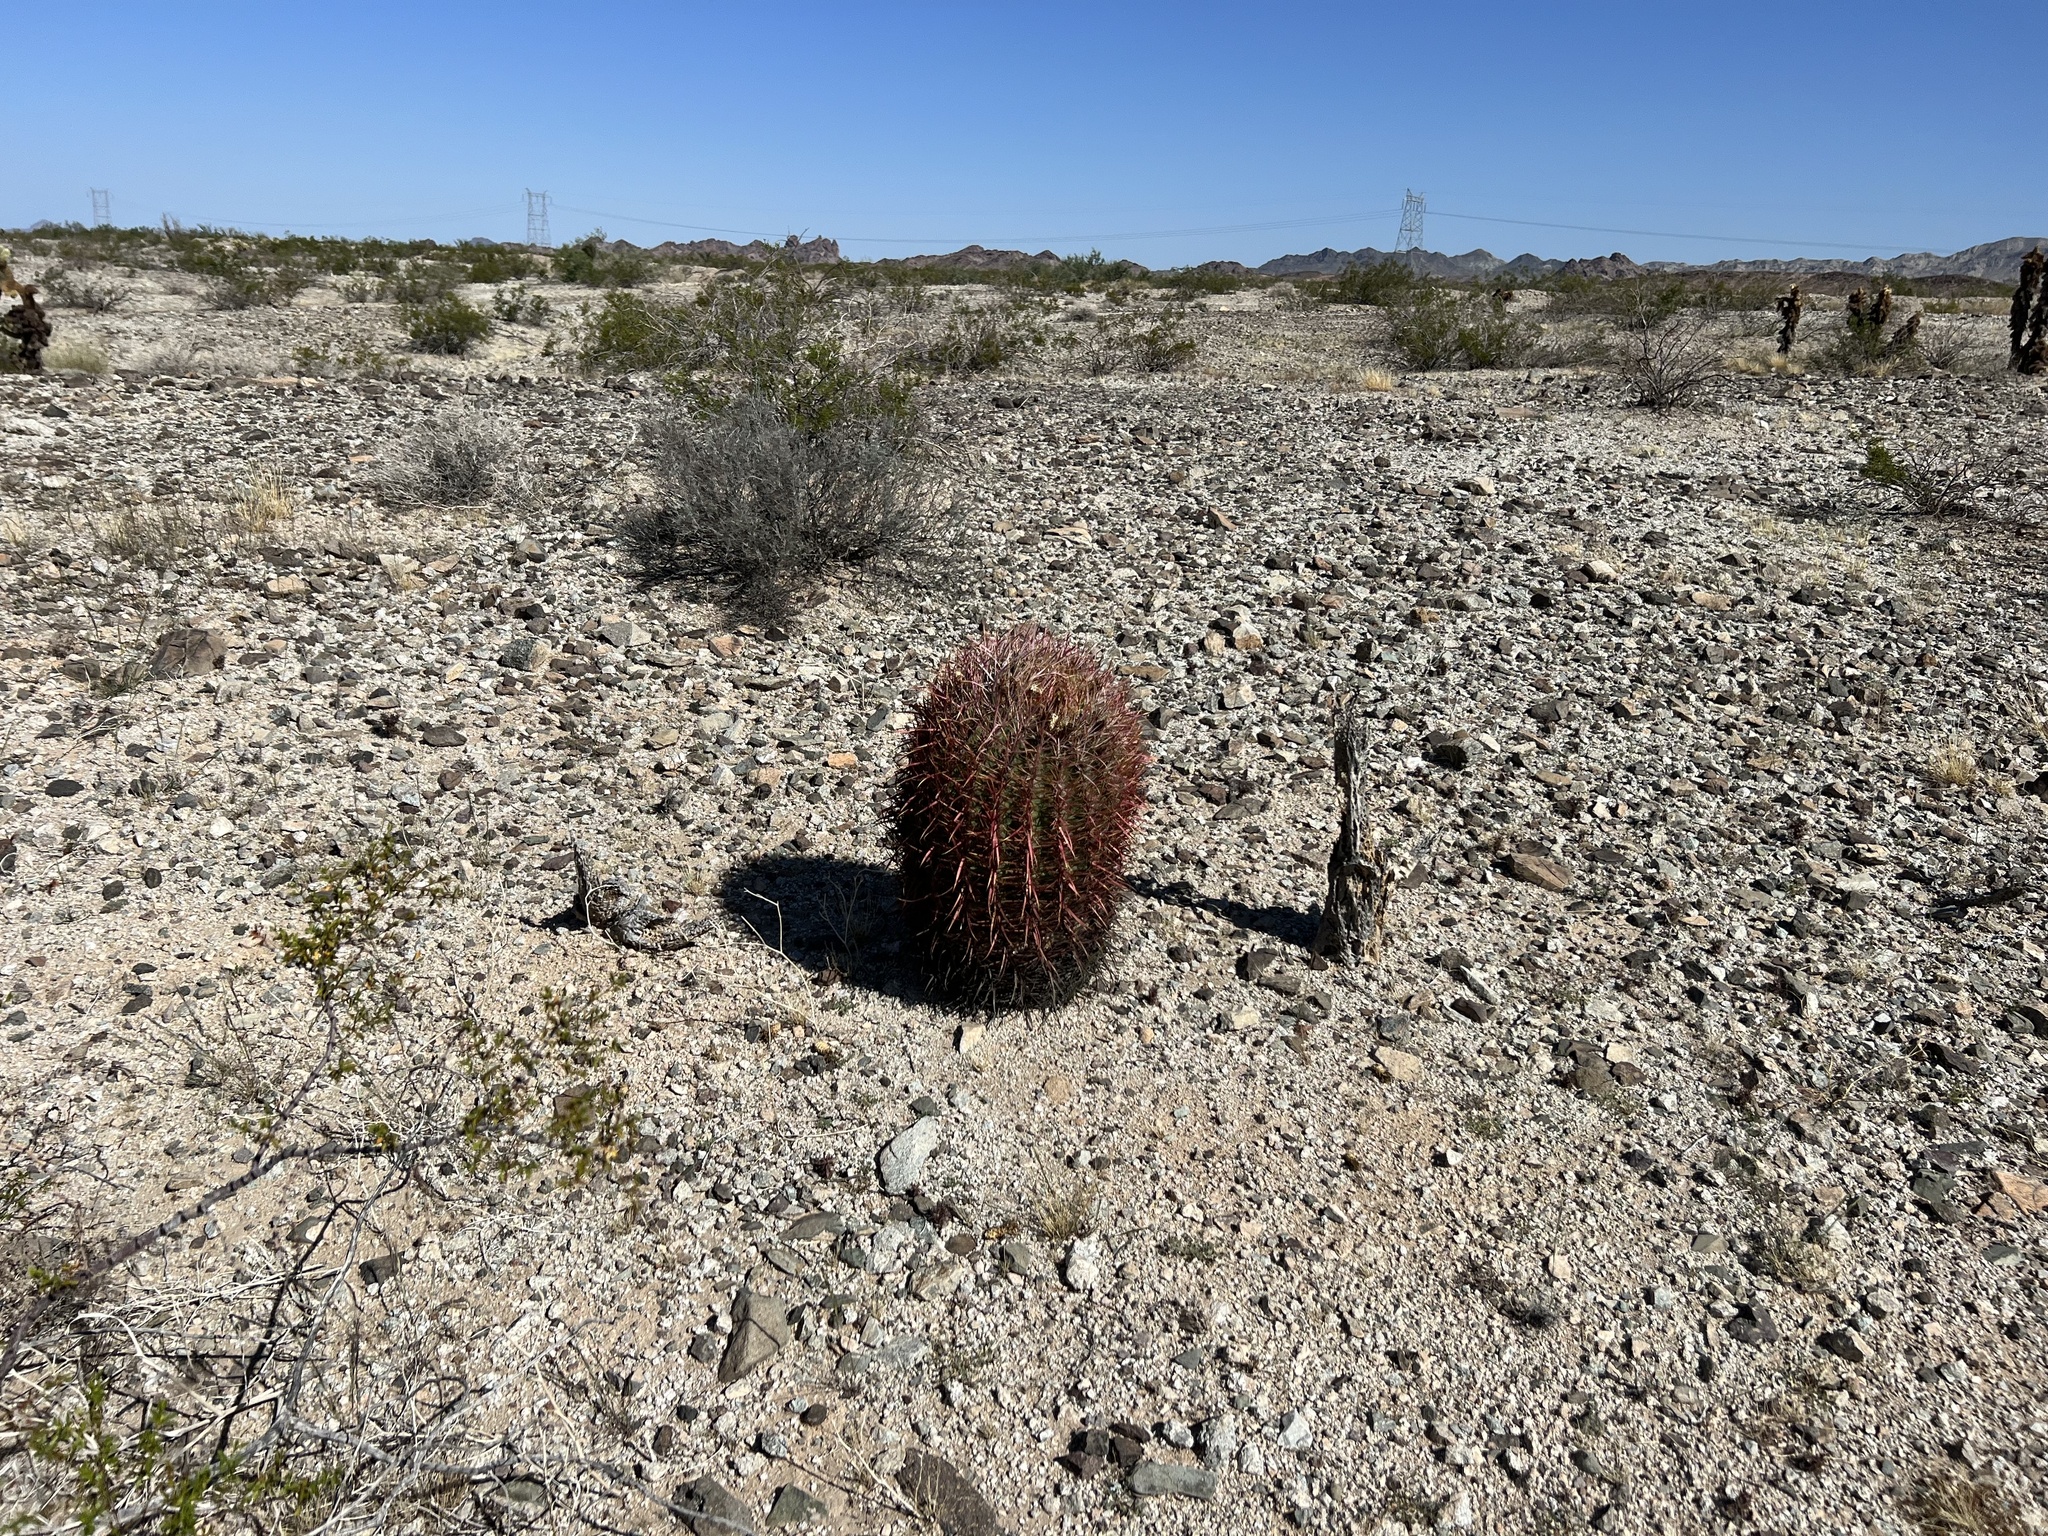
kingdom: Plantae
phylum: Tracheophyta
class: Magnoliopsida
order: Caryophyllales
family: Cactaceae
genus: Ferocactus
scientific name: Ferocactus cylindraceus
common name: California barrel cactus
